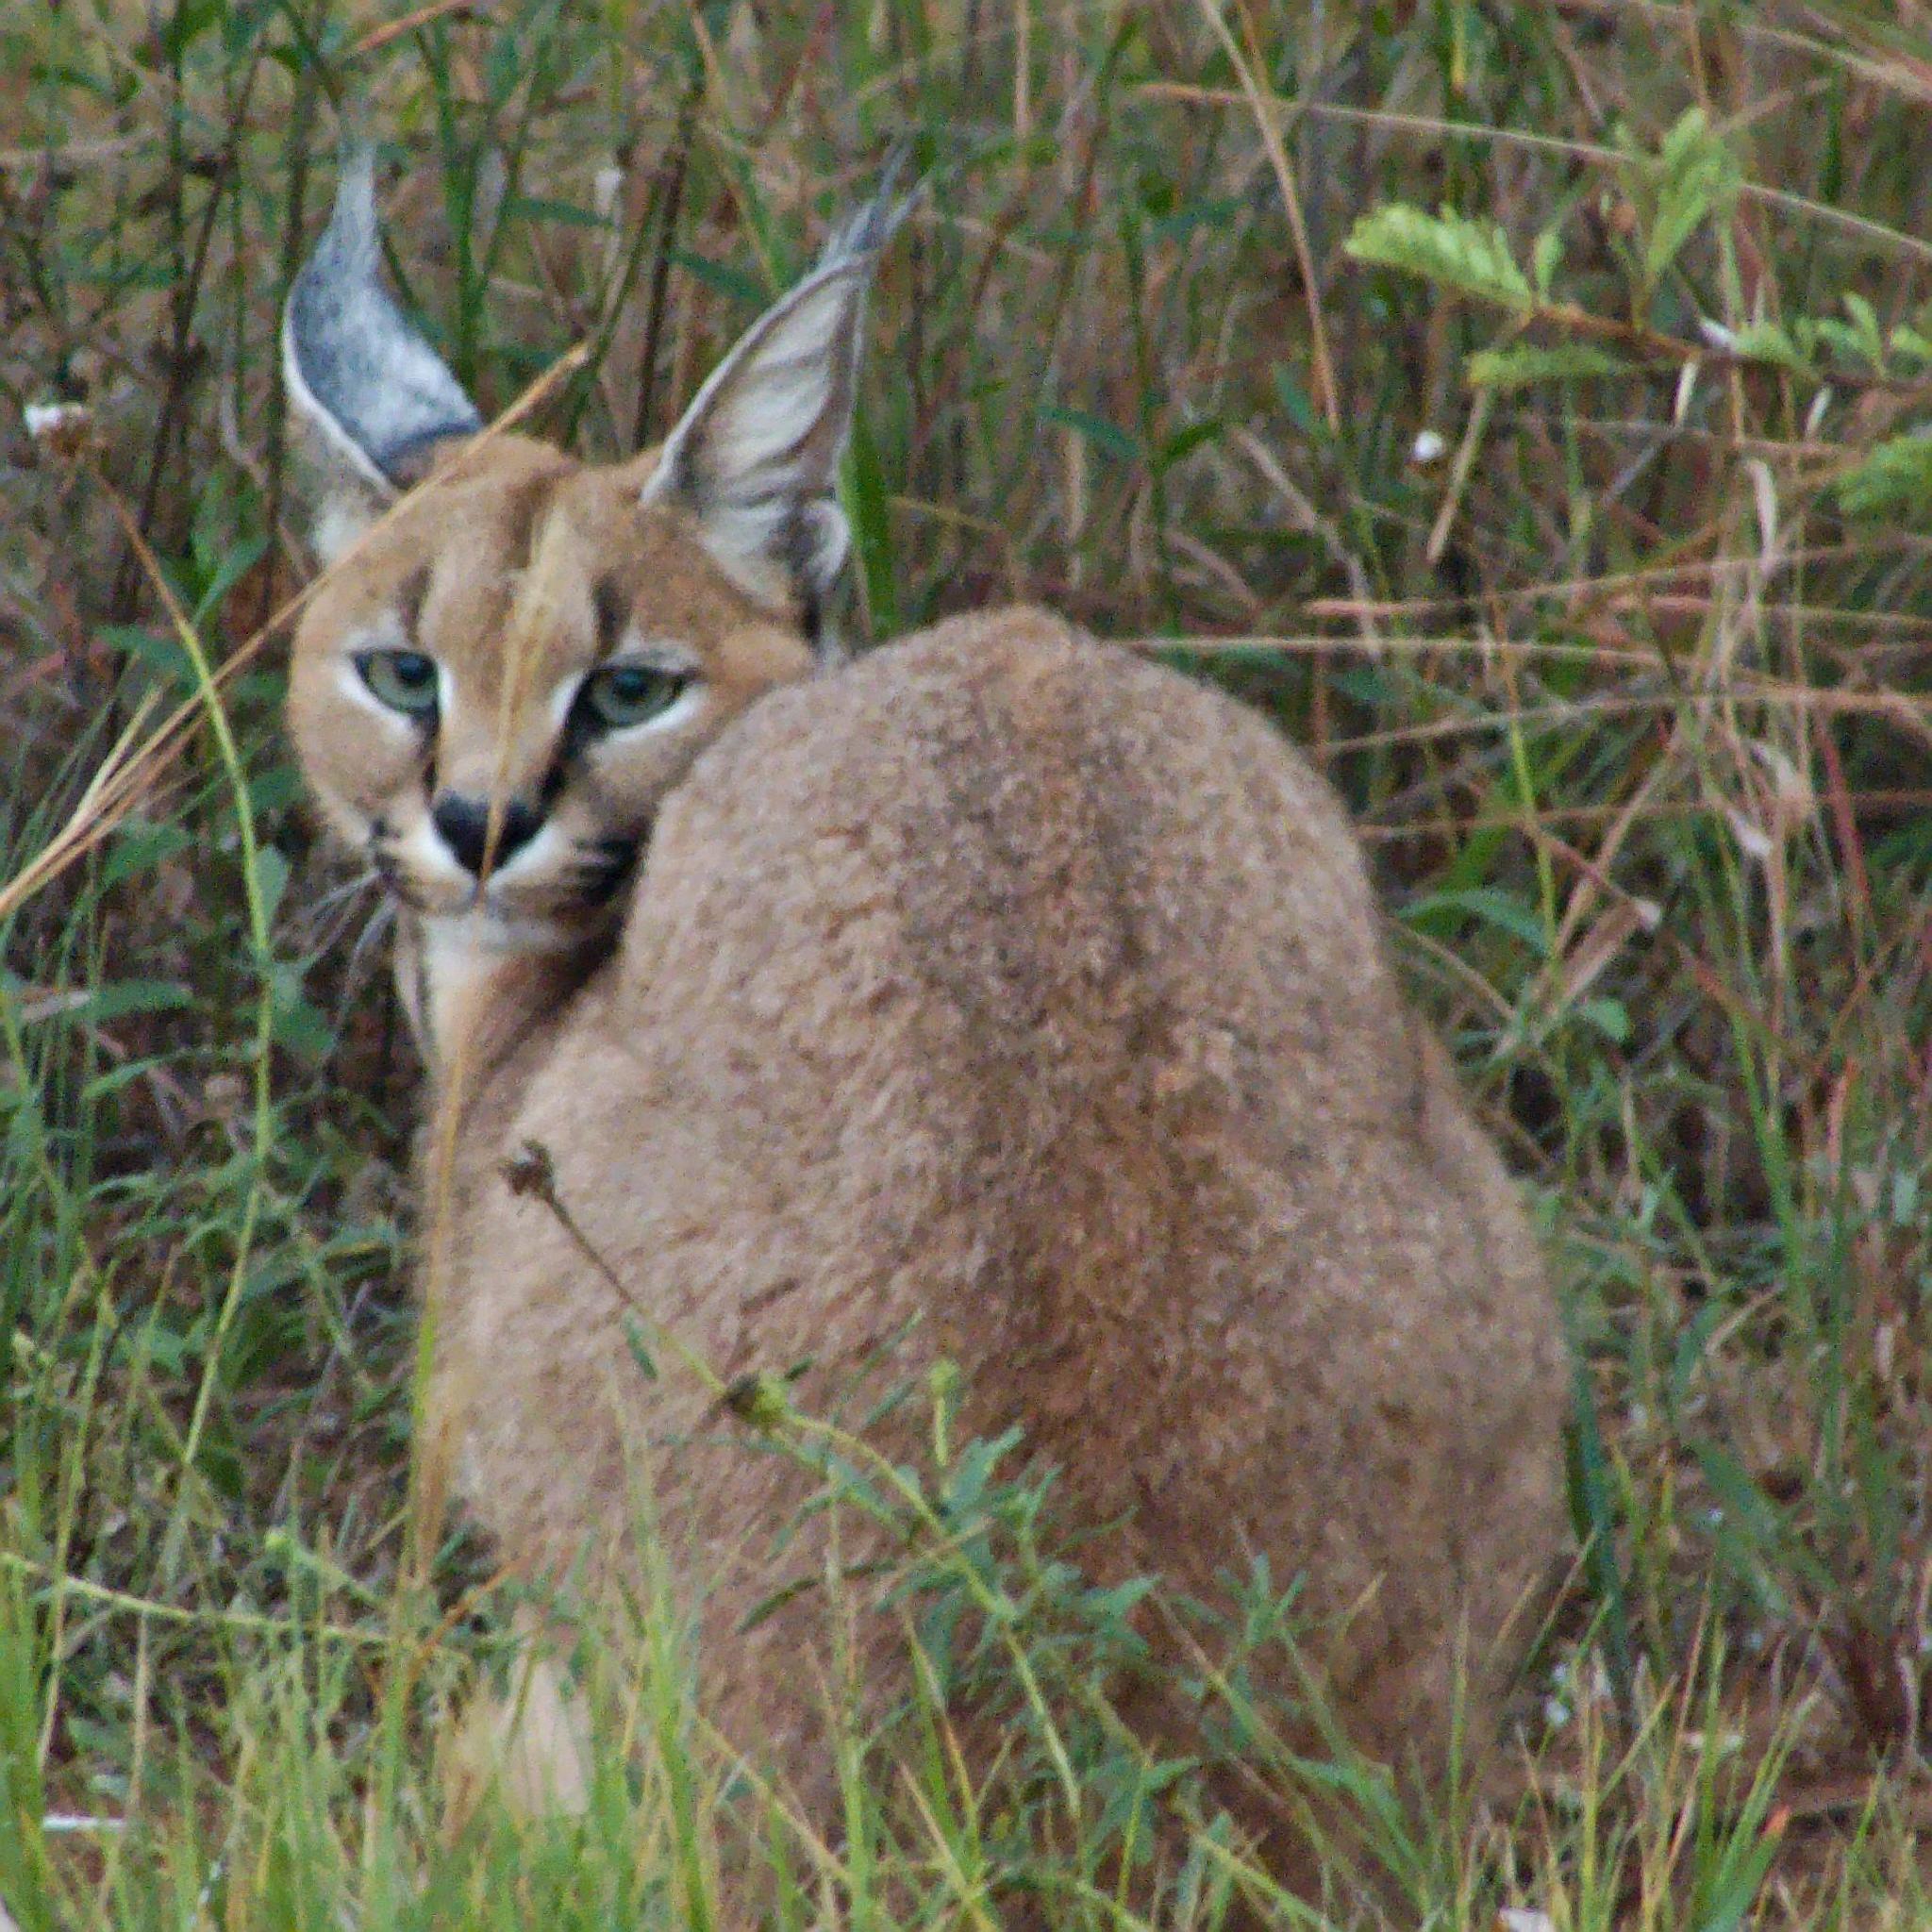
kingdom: Animalia
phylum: Chordata
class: Mammalia
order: Carnivora
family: Felidae
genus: Caracal
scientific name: Caracal caracal
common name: Caracal
